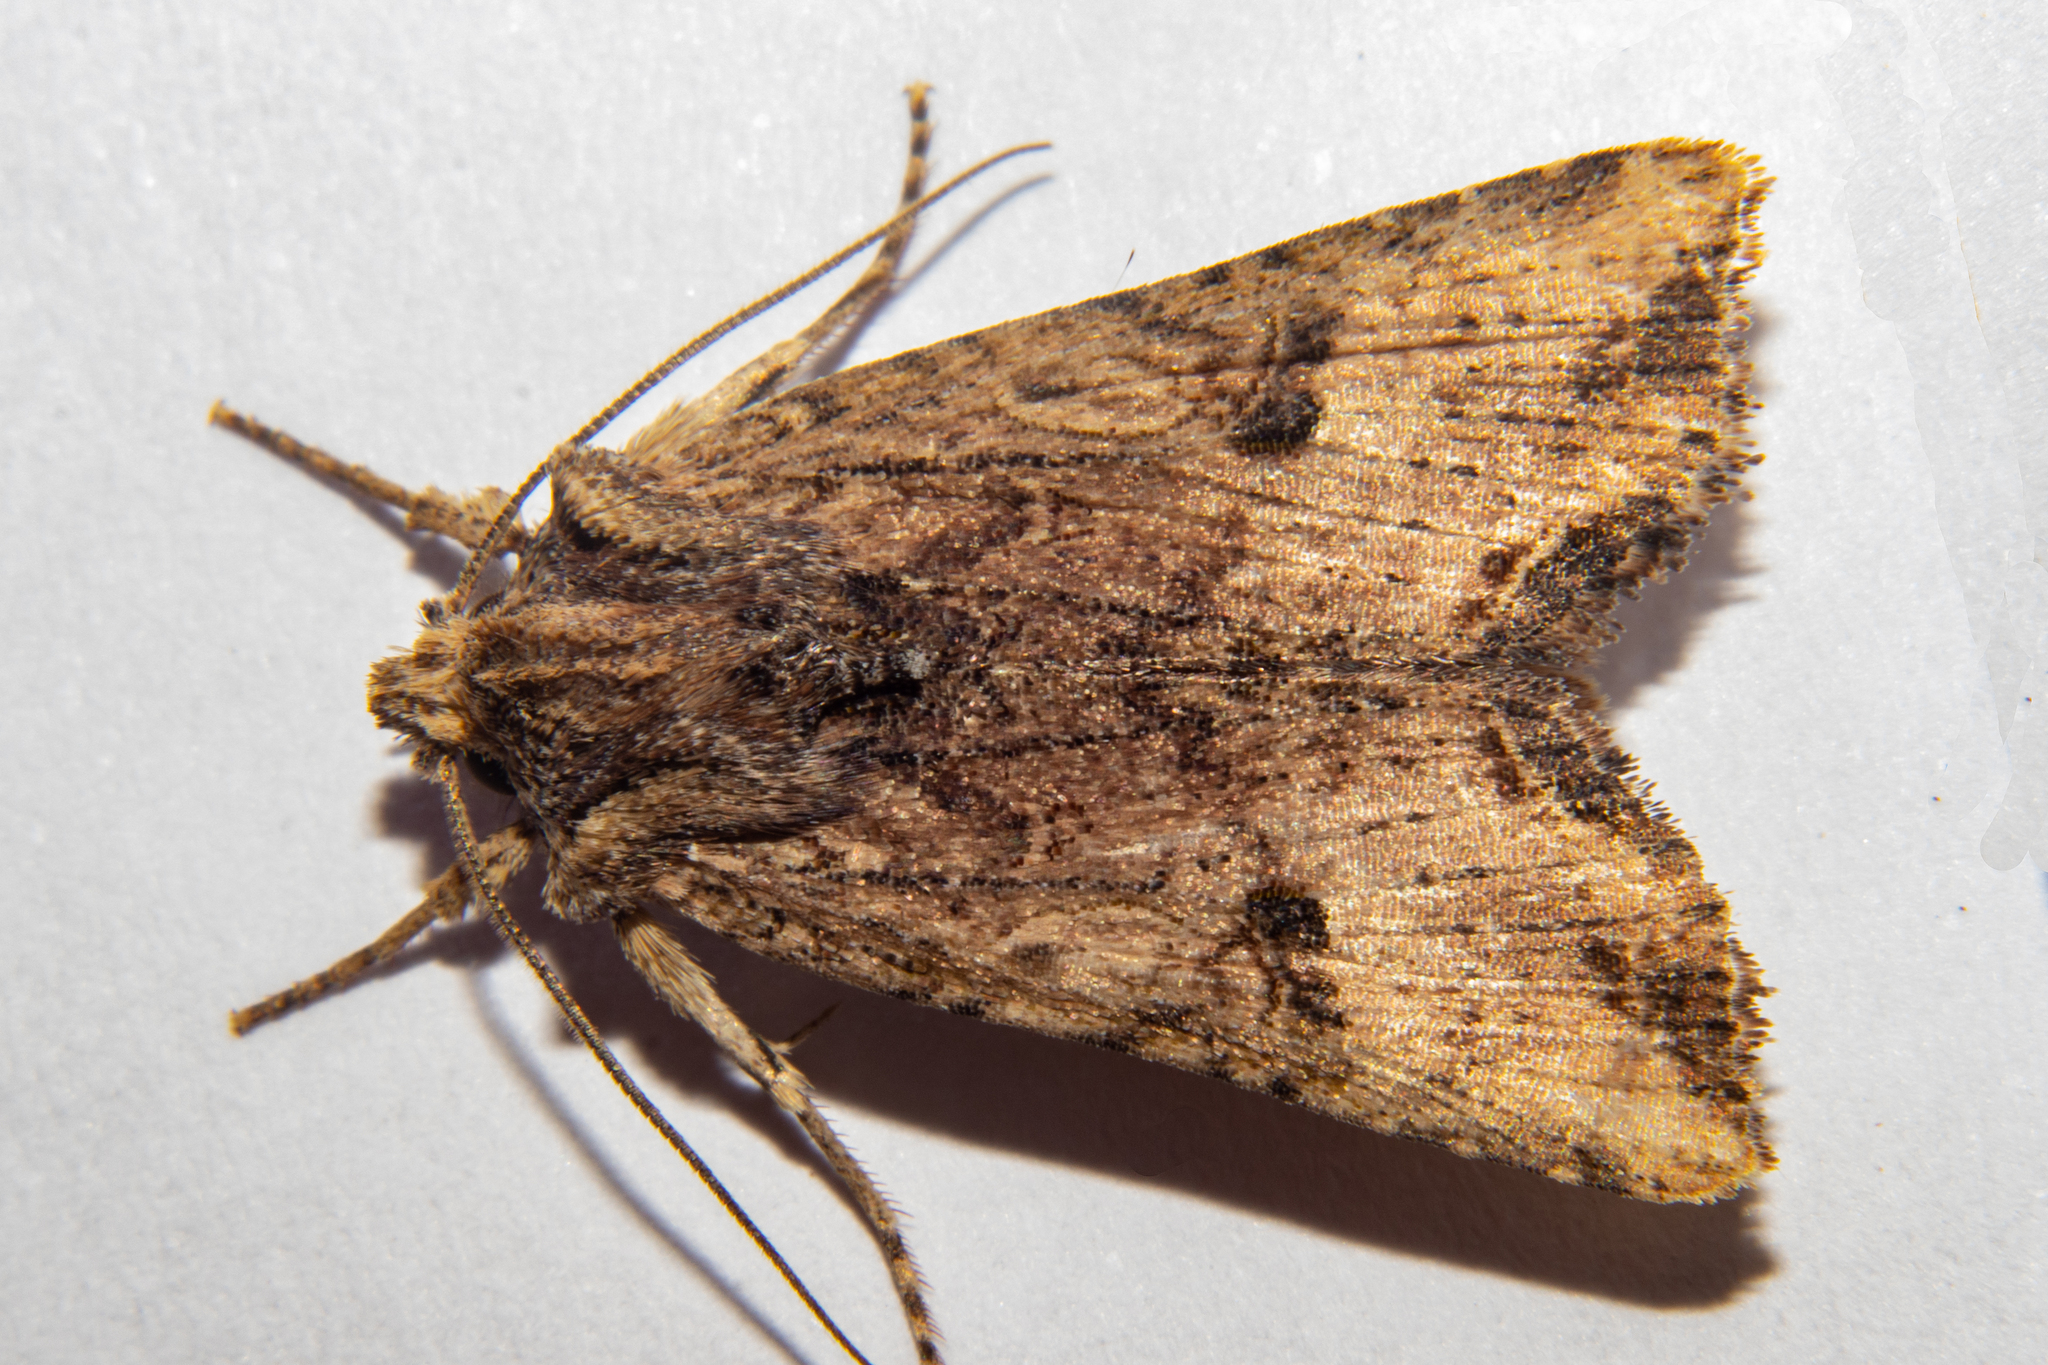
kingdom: Animalia
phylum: Arthropoda
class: Insecta
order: Lepidoptera
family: Noctuidae
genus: Meterana
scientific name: Meterana coeleno
